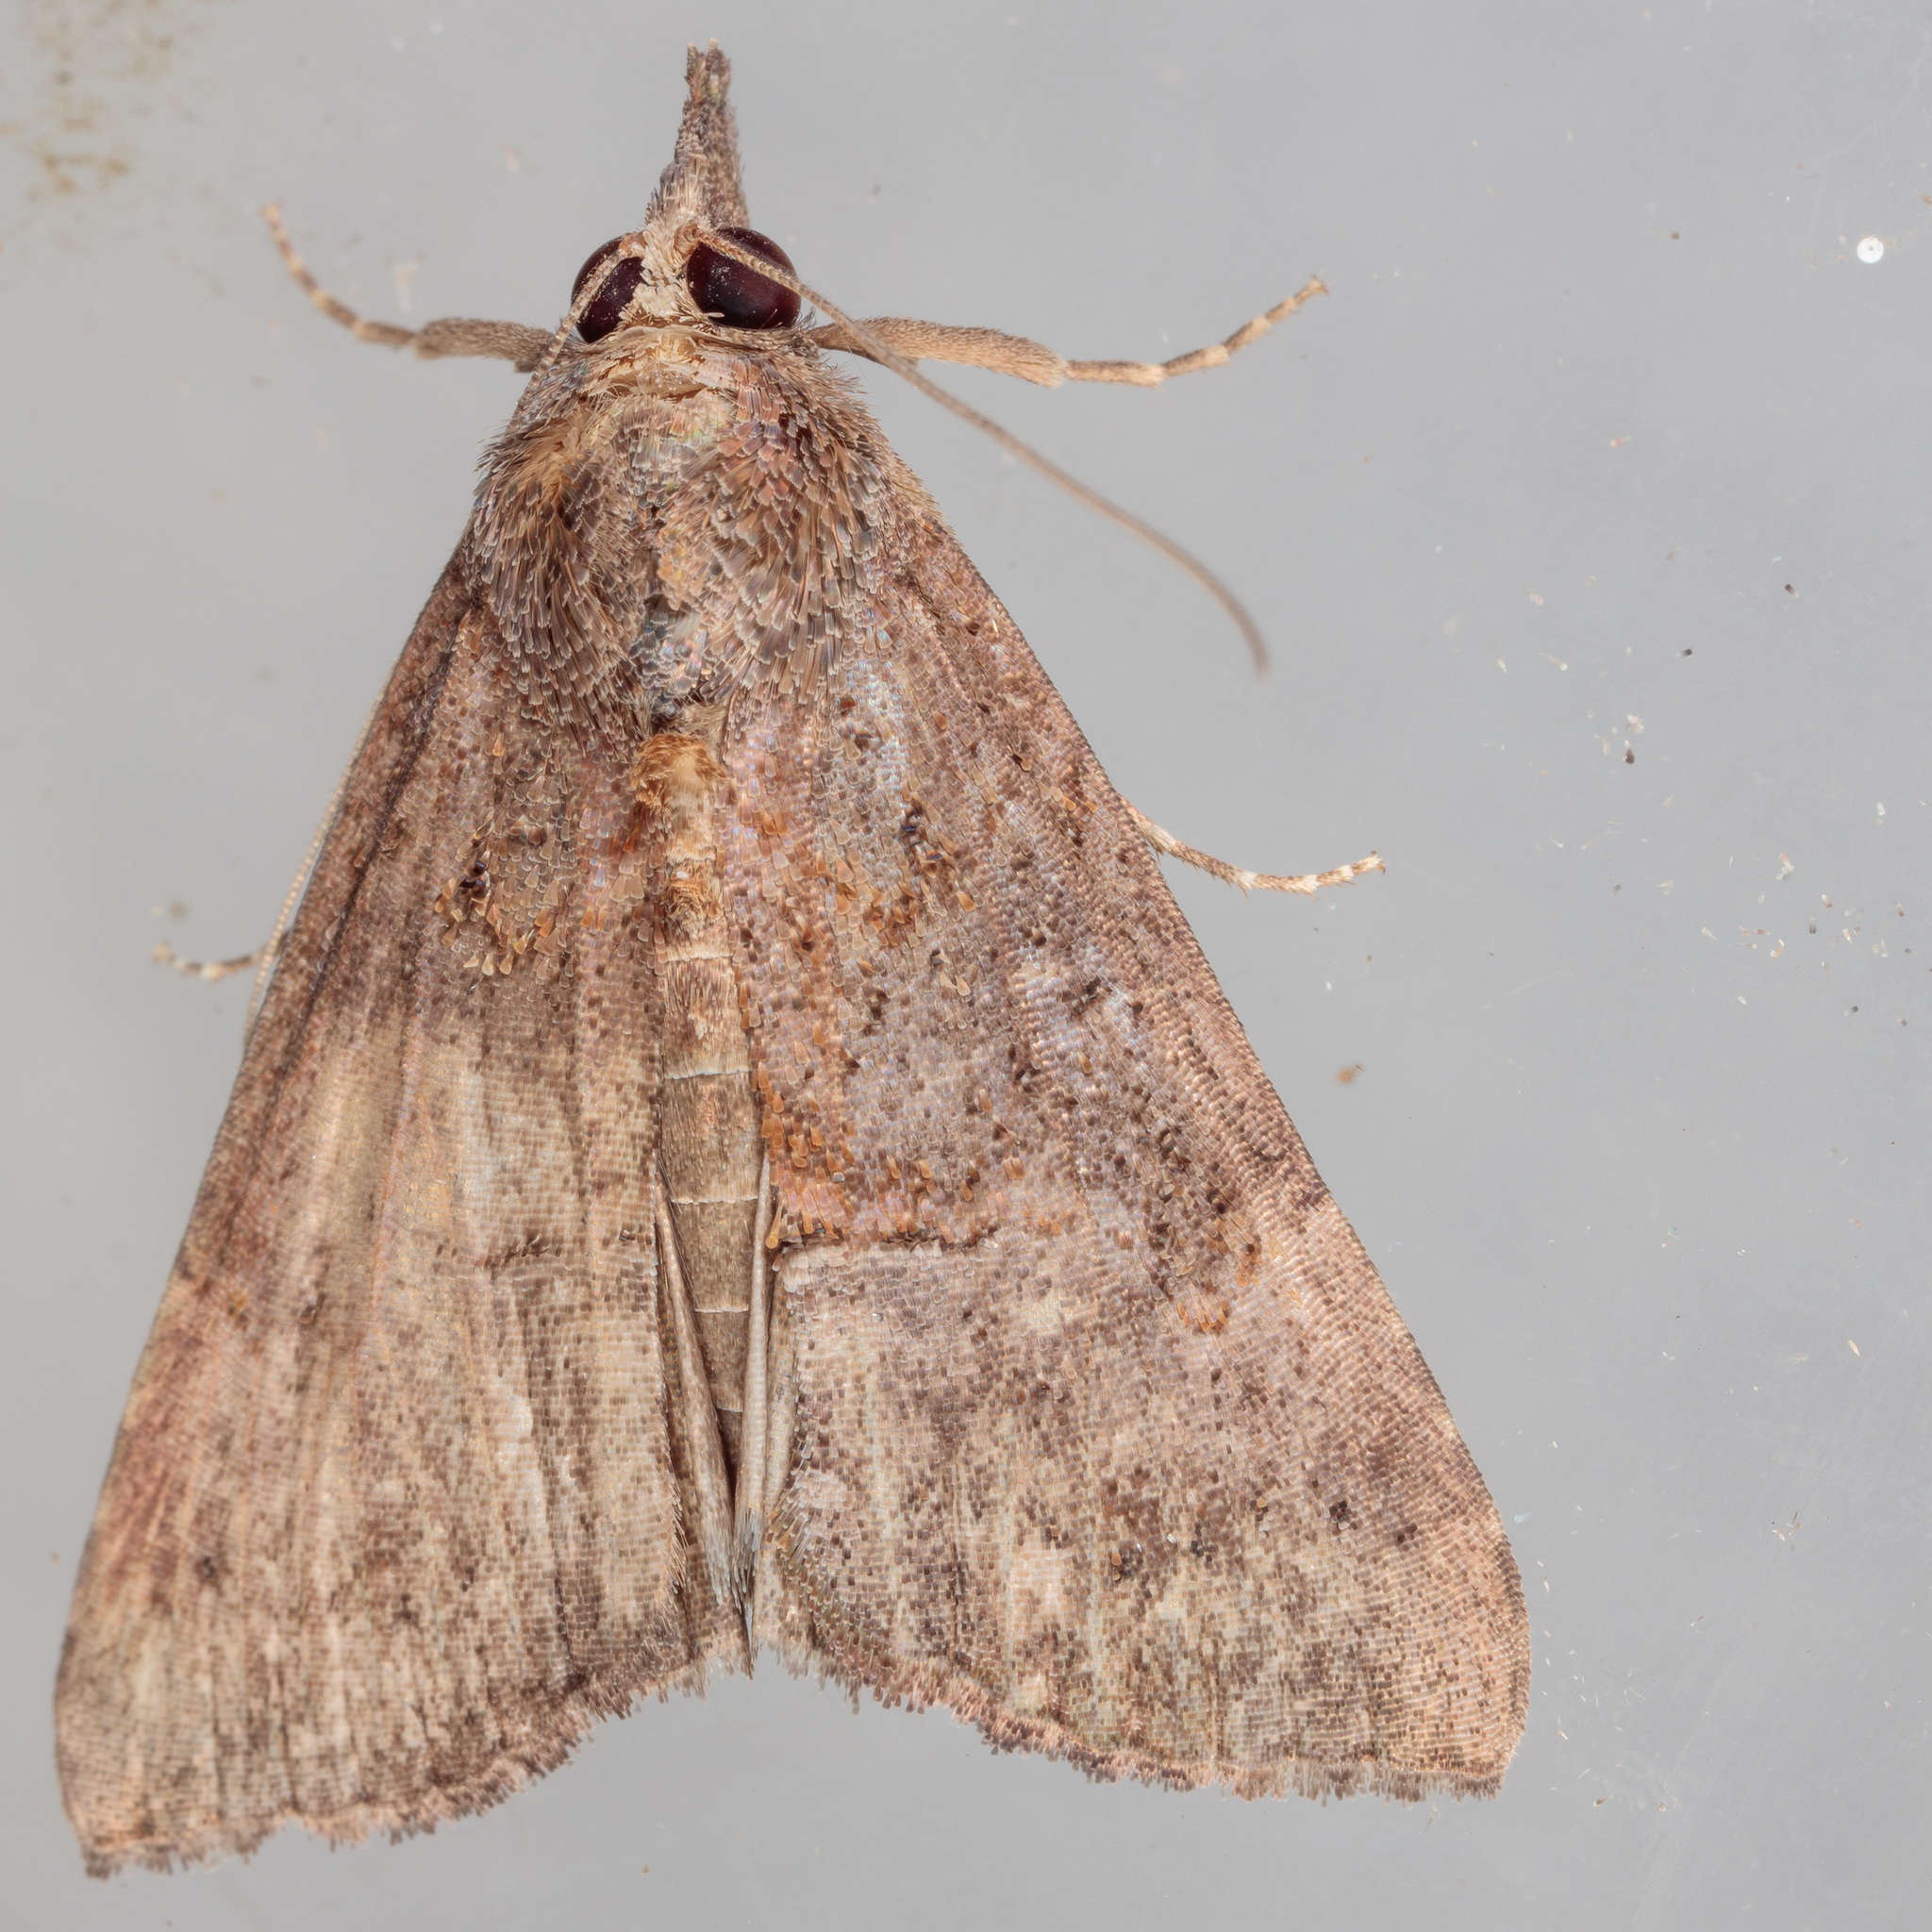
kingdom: Animalia
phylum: Arthropoda
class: Insecta
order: Lepidoptera
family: Erebidae
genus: Hypena
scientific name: Hypena scabra
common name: Green cloverworm
